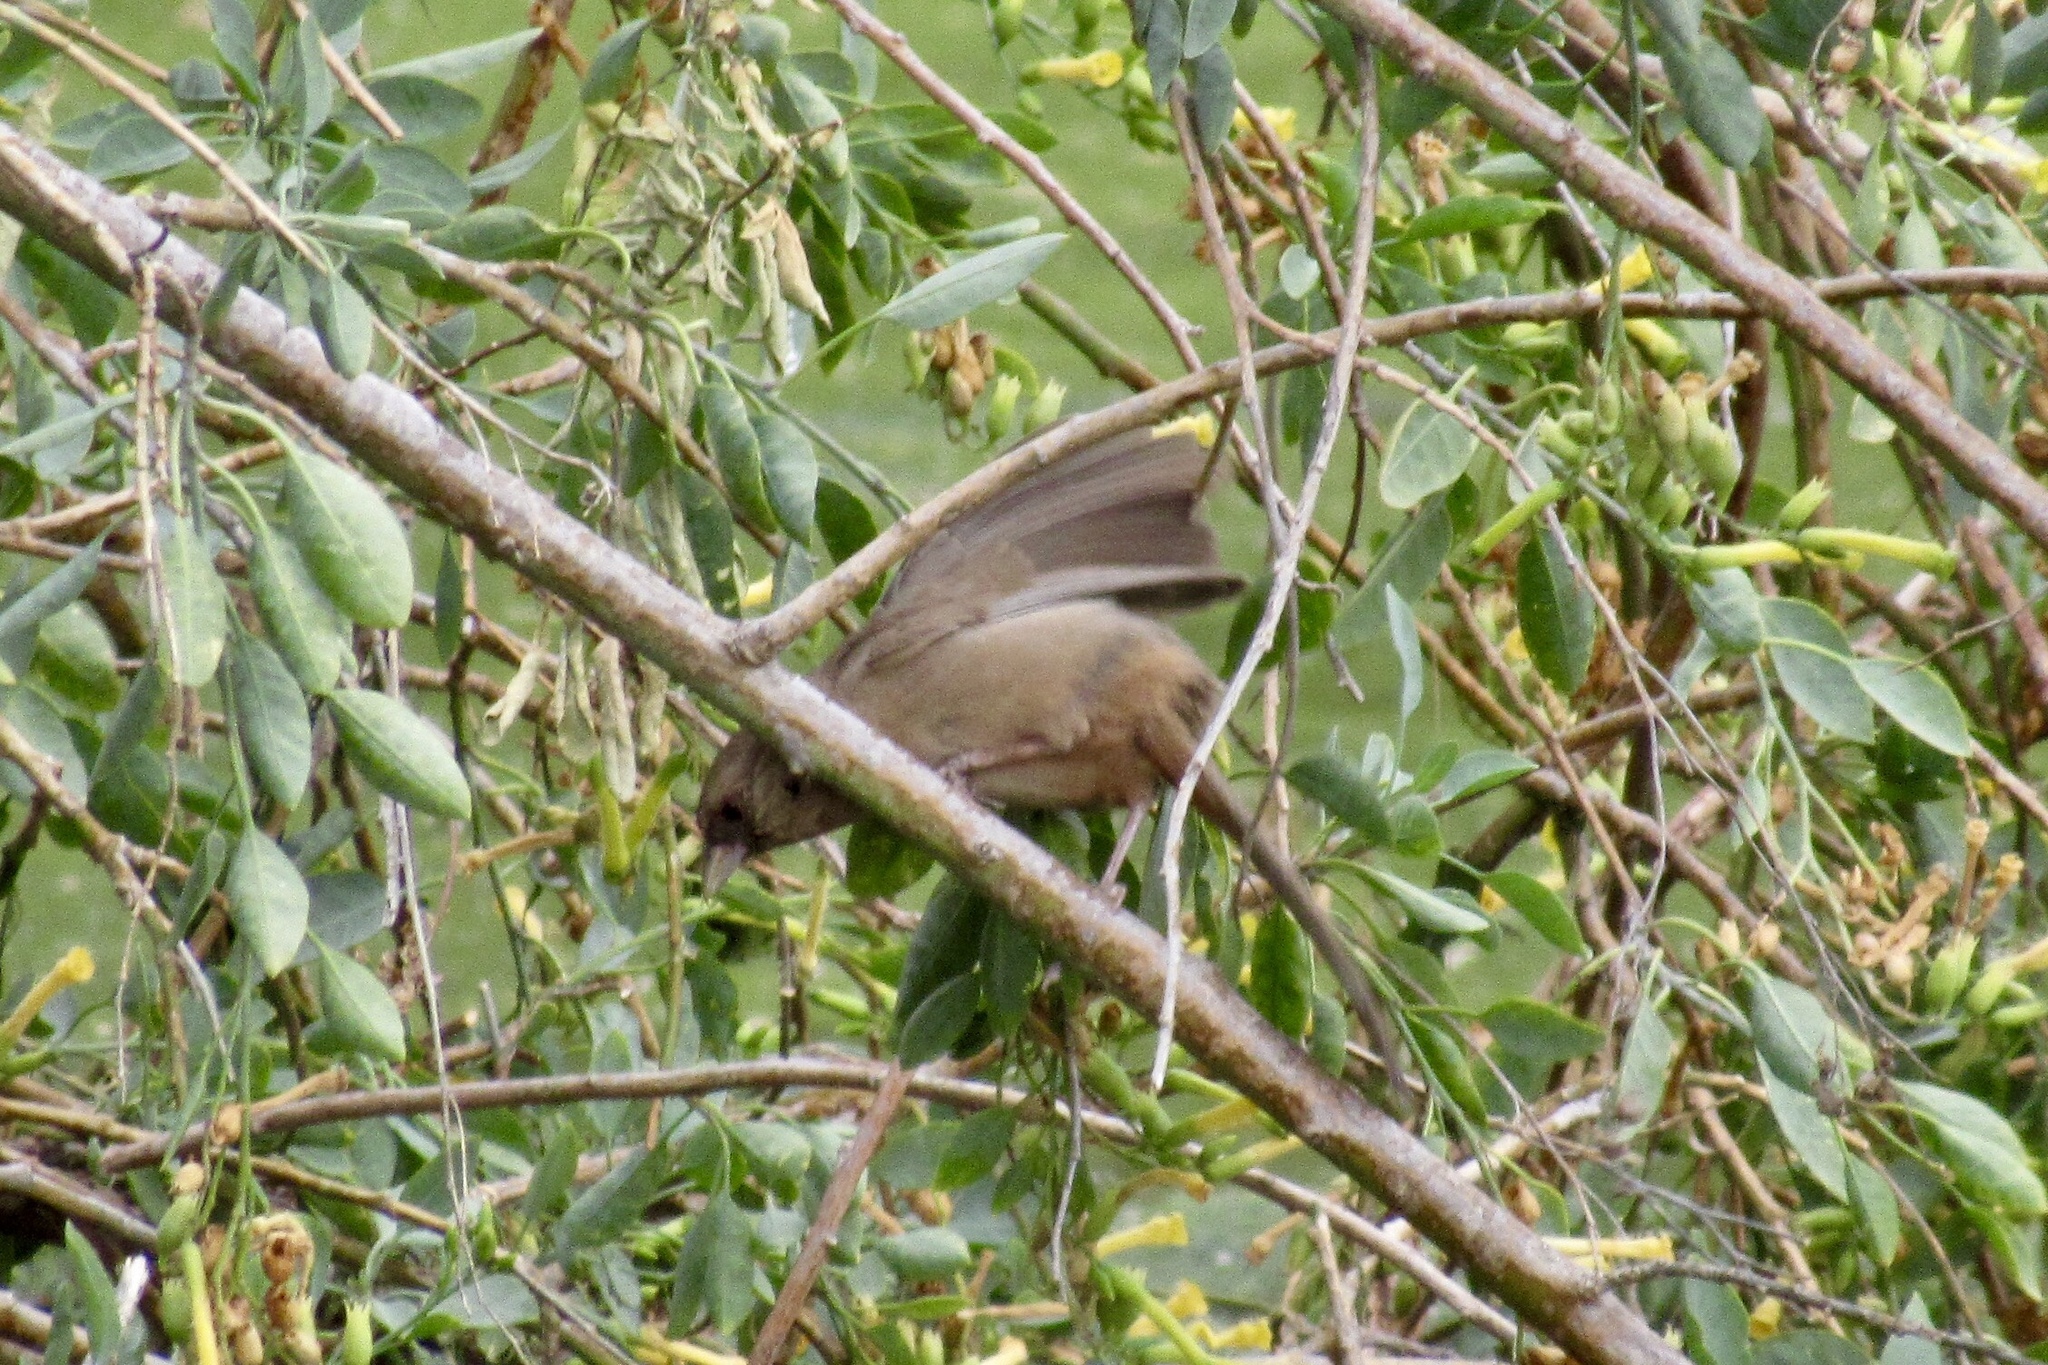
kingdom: Animalia
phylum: Chordata
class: Aves
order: Passeriformes
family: Passerellidae
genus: Melozone
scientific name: Melozone aberti
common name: Abert's towhee
